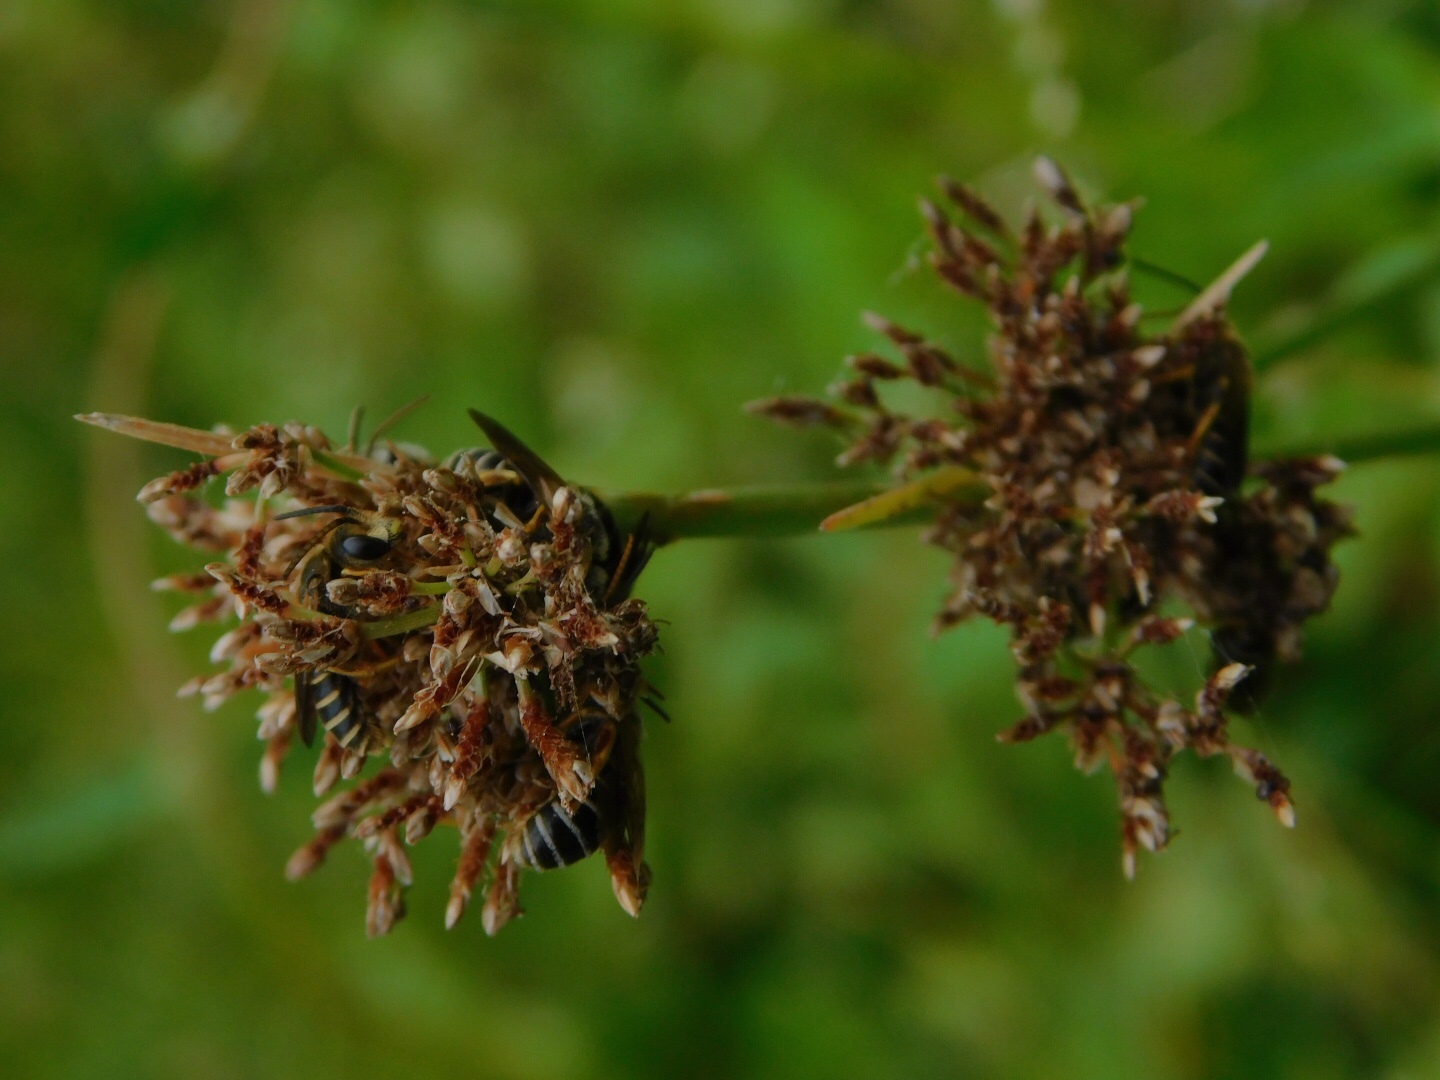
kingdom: Animalia
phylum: Arthropoda
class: Insecta
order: Hymenoptera
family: Halictidae
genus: Halictus
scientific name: Halictus poeyi
